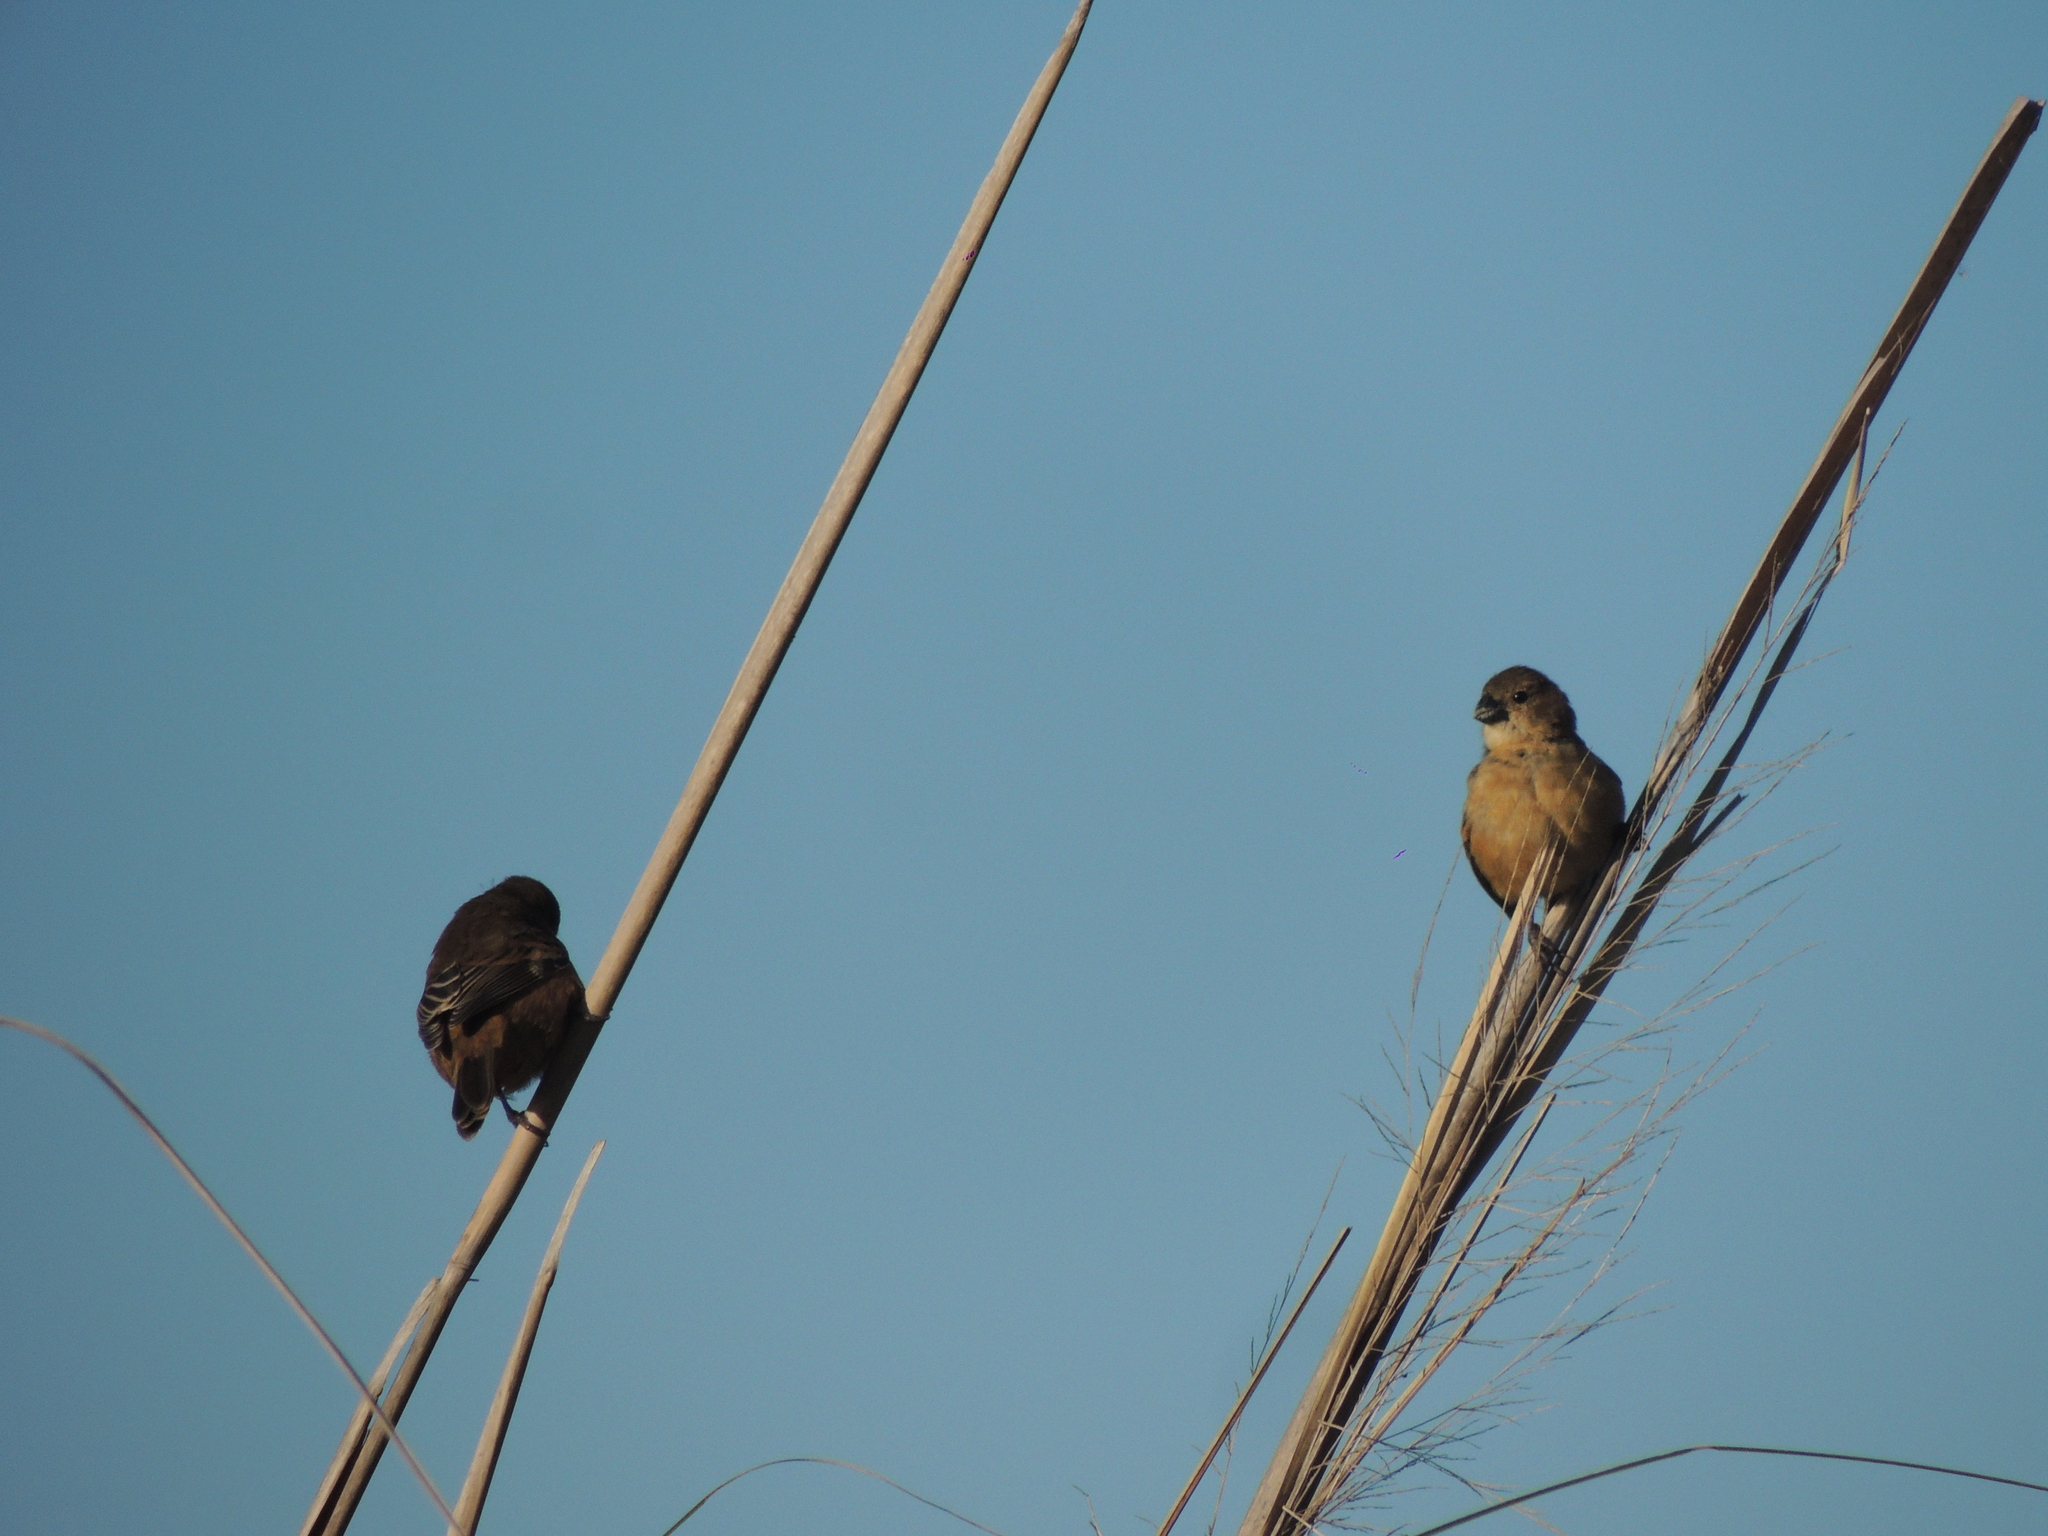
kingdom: Animalia
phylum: Chordata
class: Aves
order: Passeriformes
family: Thraupidae
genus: Sporophila
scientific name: Sporophila collaris
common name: Rusty-collared seedeater
